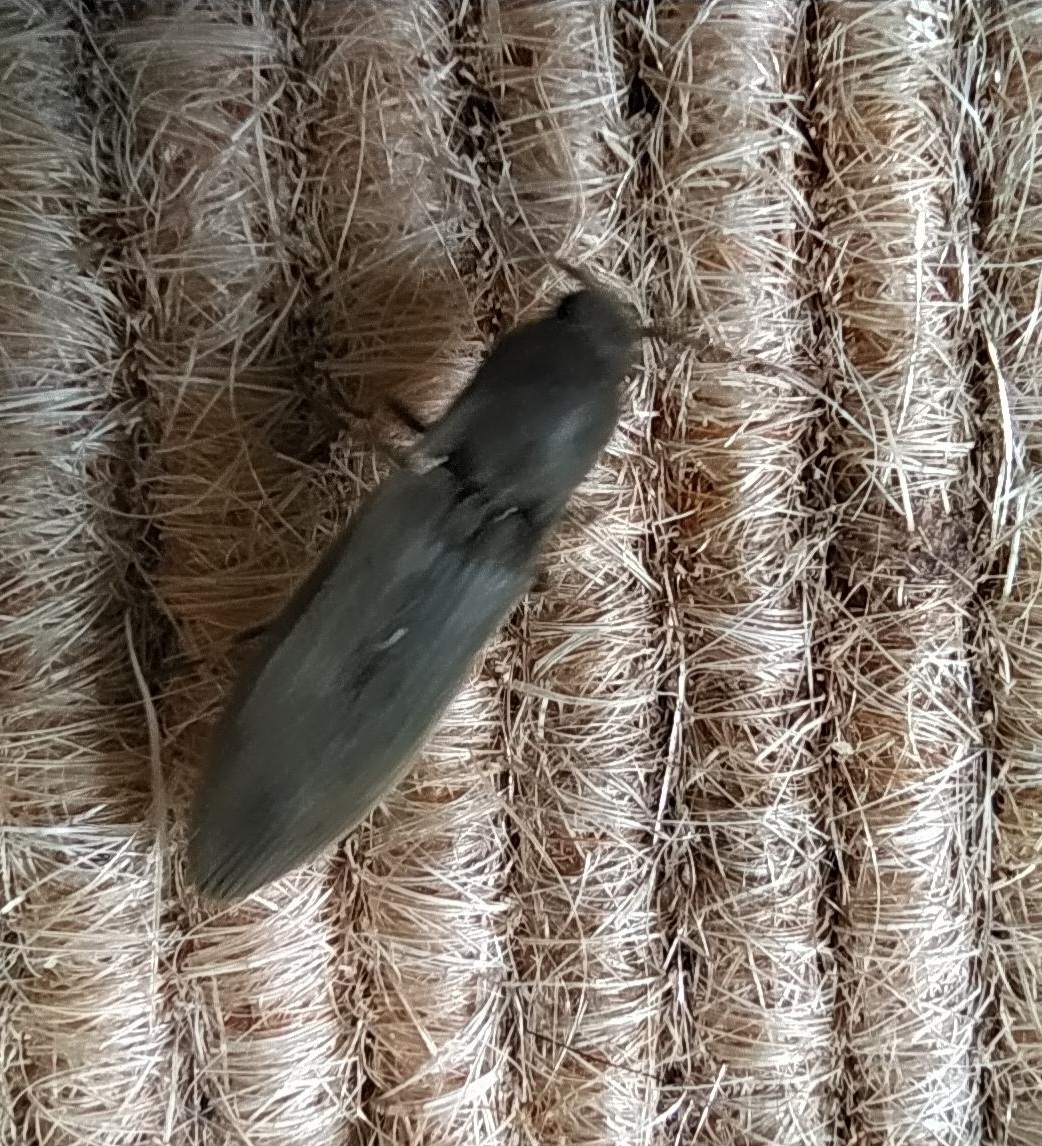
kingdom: Animalia
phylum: Arthropoda
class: Insecta
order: Coleoptera
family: Elateridae
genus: Agriotes
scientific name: Agriotes pilosellus
